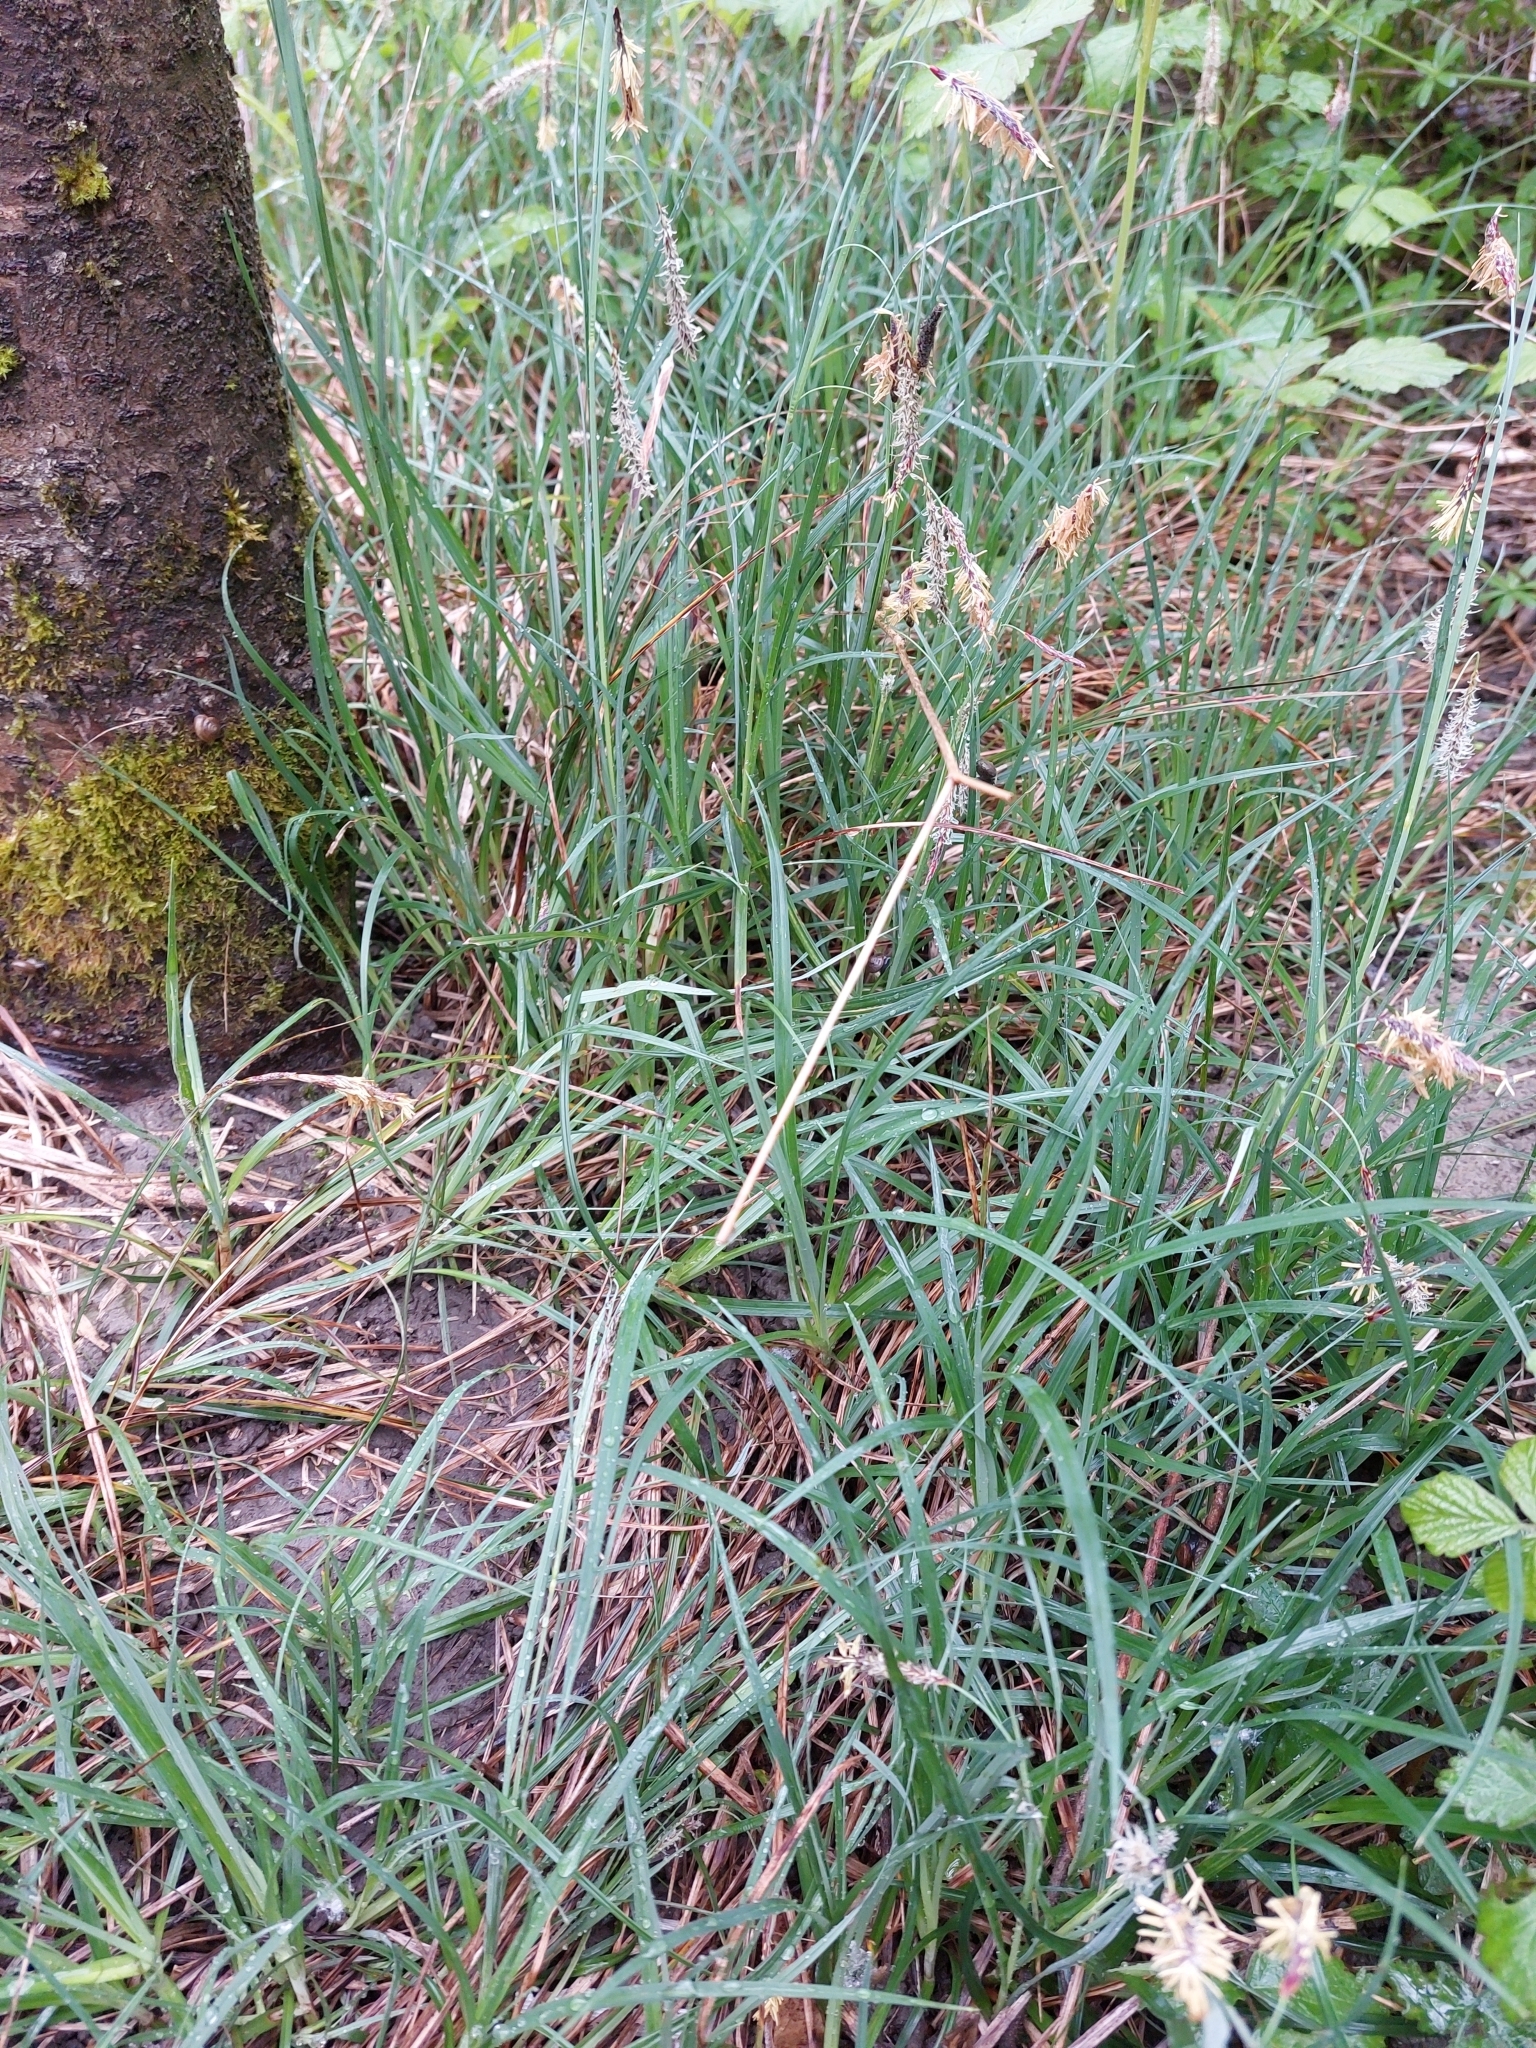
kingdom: Plantae
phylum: Tracheophyta
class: Liliopsida
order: Poales
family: Cyperaceae
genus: Carex
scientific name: Carex flacca
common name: Glaucous sedge
